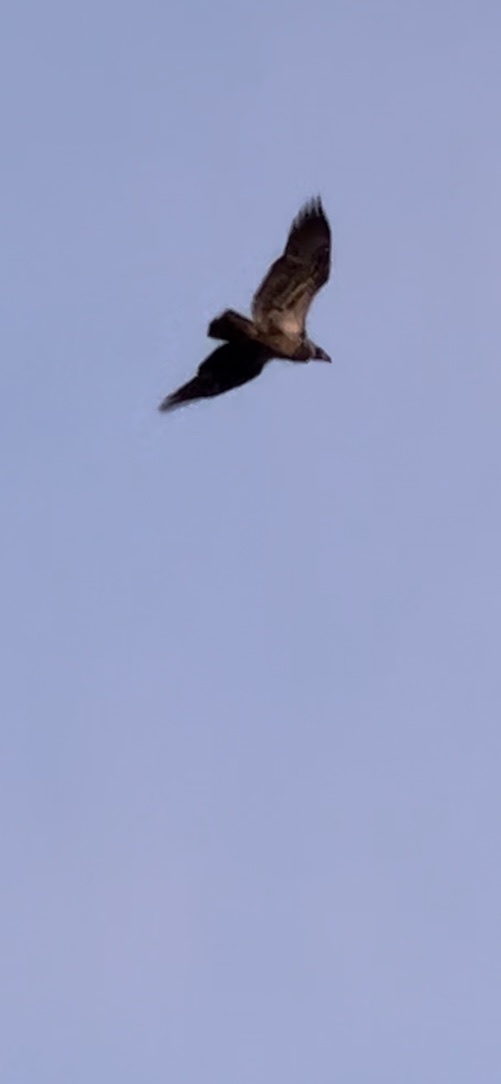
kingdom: Animalia
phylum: Chordata
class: Aves
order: Accipitriformes
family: Accipitridae
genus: Haliaeetus
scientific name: Haliaeetus leucocephalus
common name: Bald eagle
